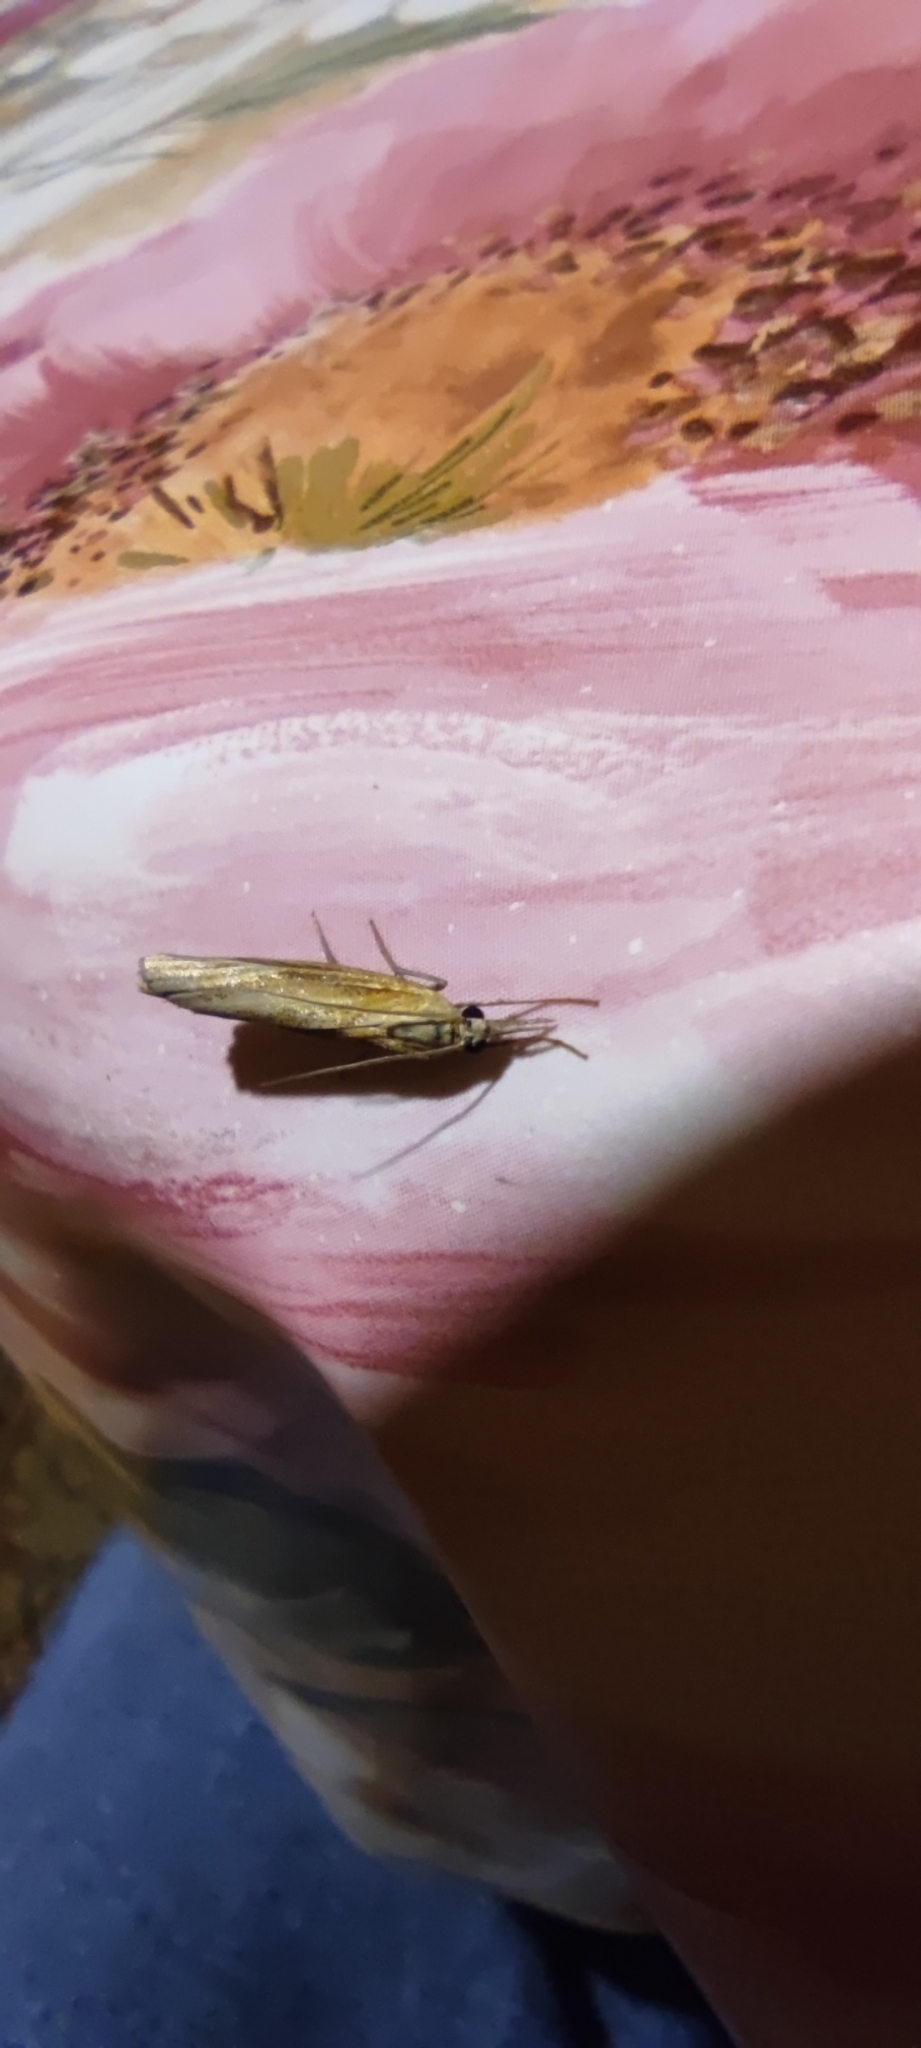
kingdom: Animalia
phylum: Arthropoda
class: Insecta
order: Lepidoptera
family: Crambidae
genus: Agriphila
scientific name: Agriphila tristellus
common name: Common grass-veneer
